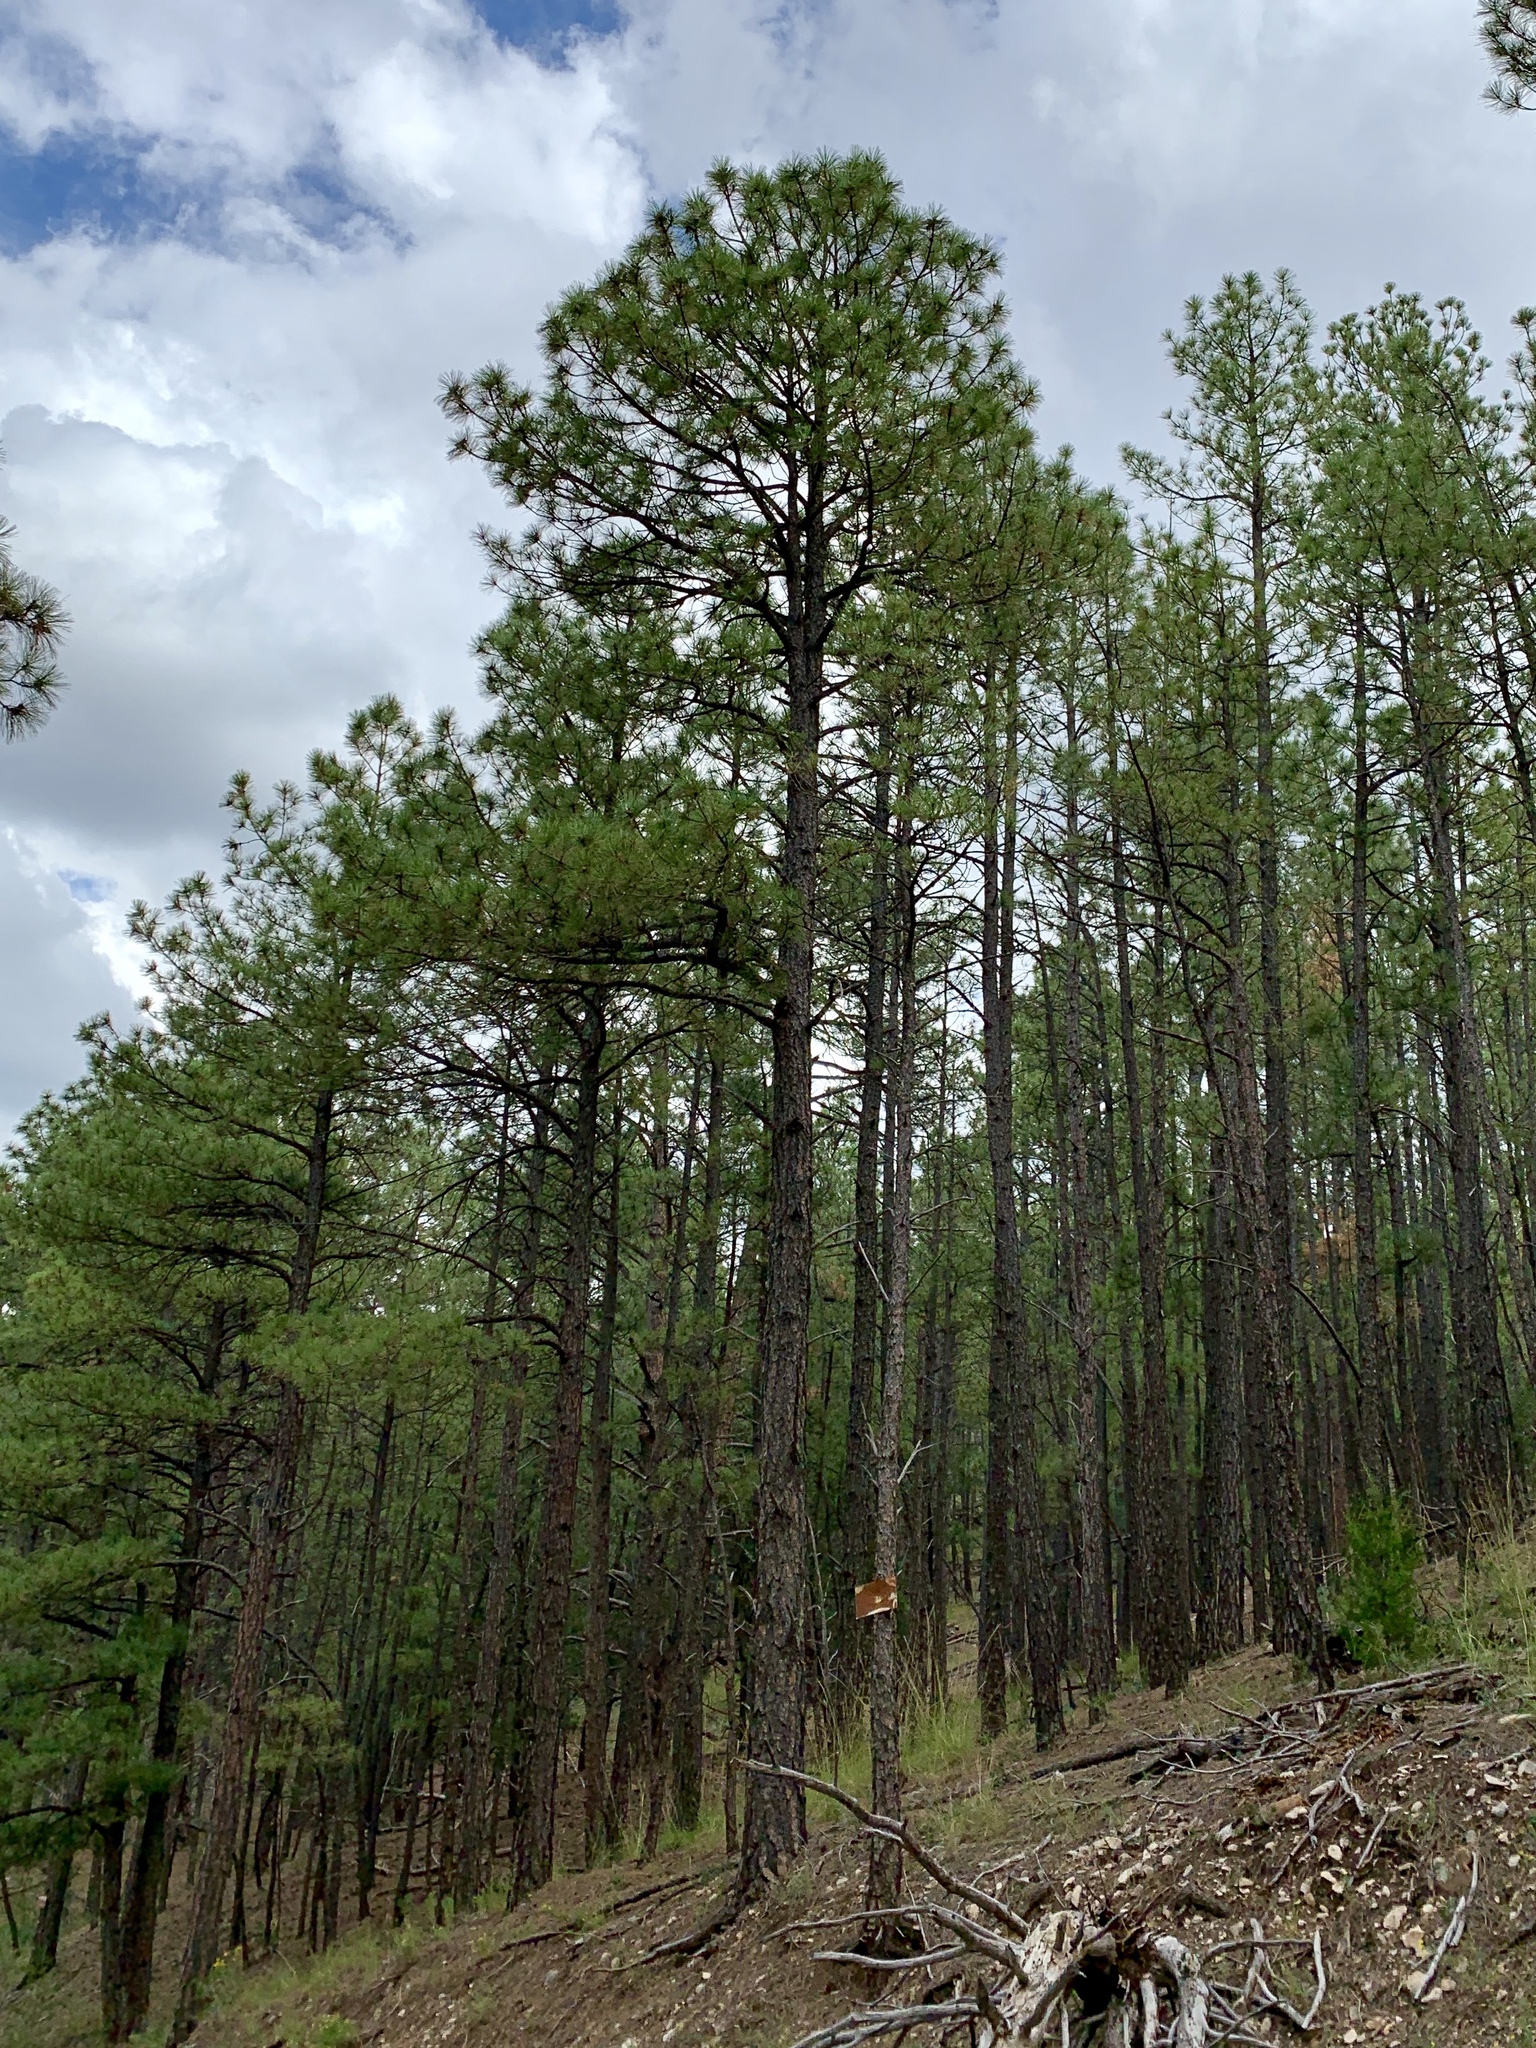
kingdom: Plantae
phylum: Tracheophyta
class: Pinopsida
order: Pinales
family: Pinaceae
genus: Pinus
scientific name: Pinus ponderosa
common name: Western yellow-pine
